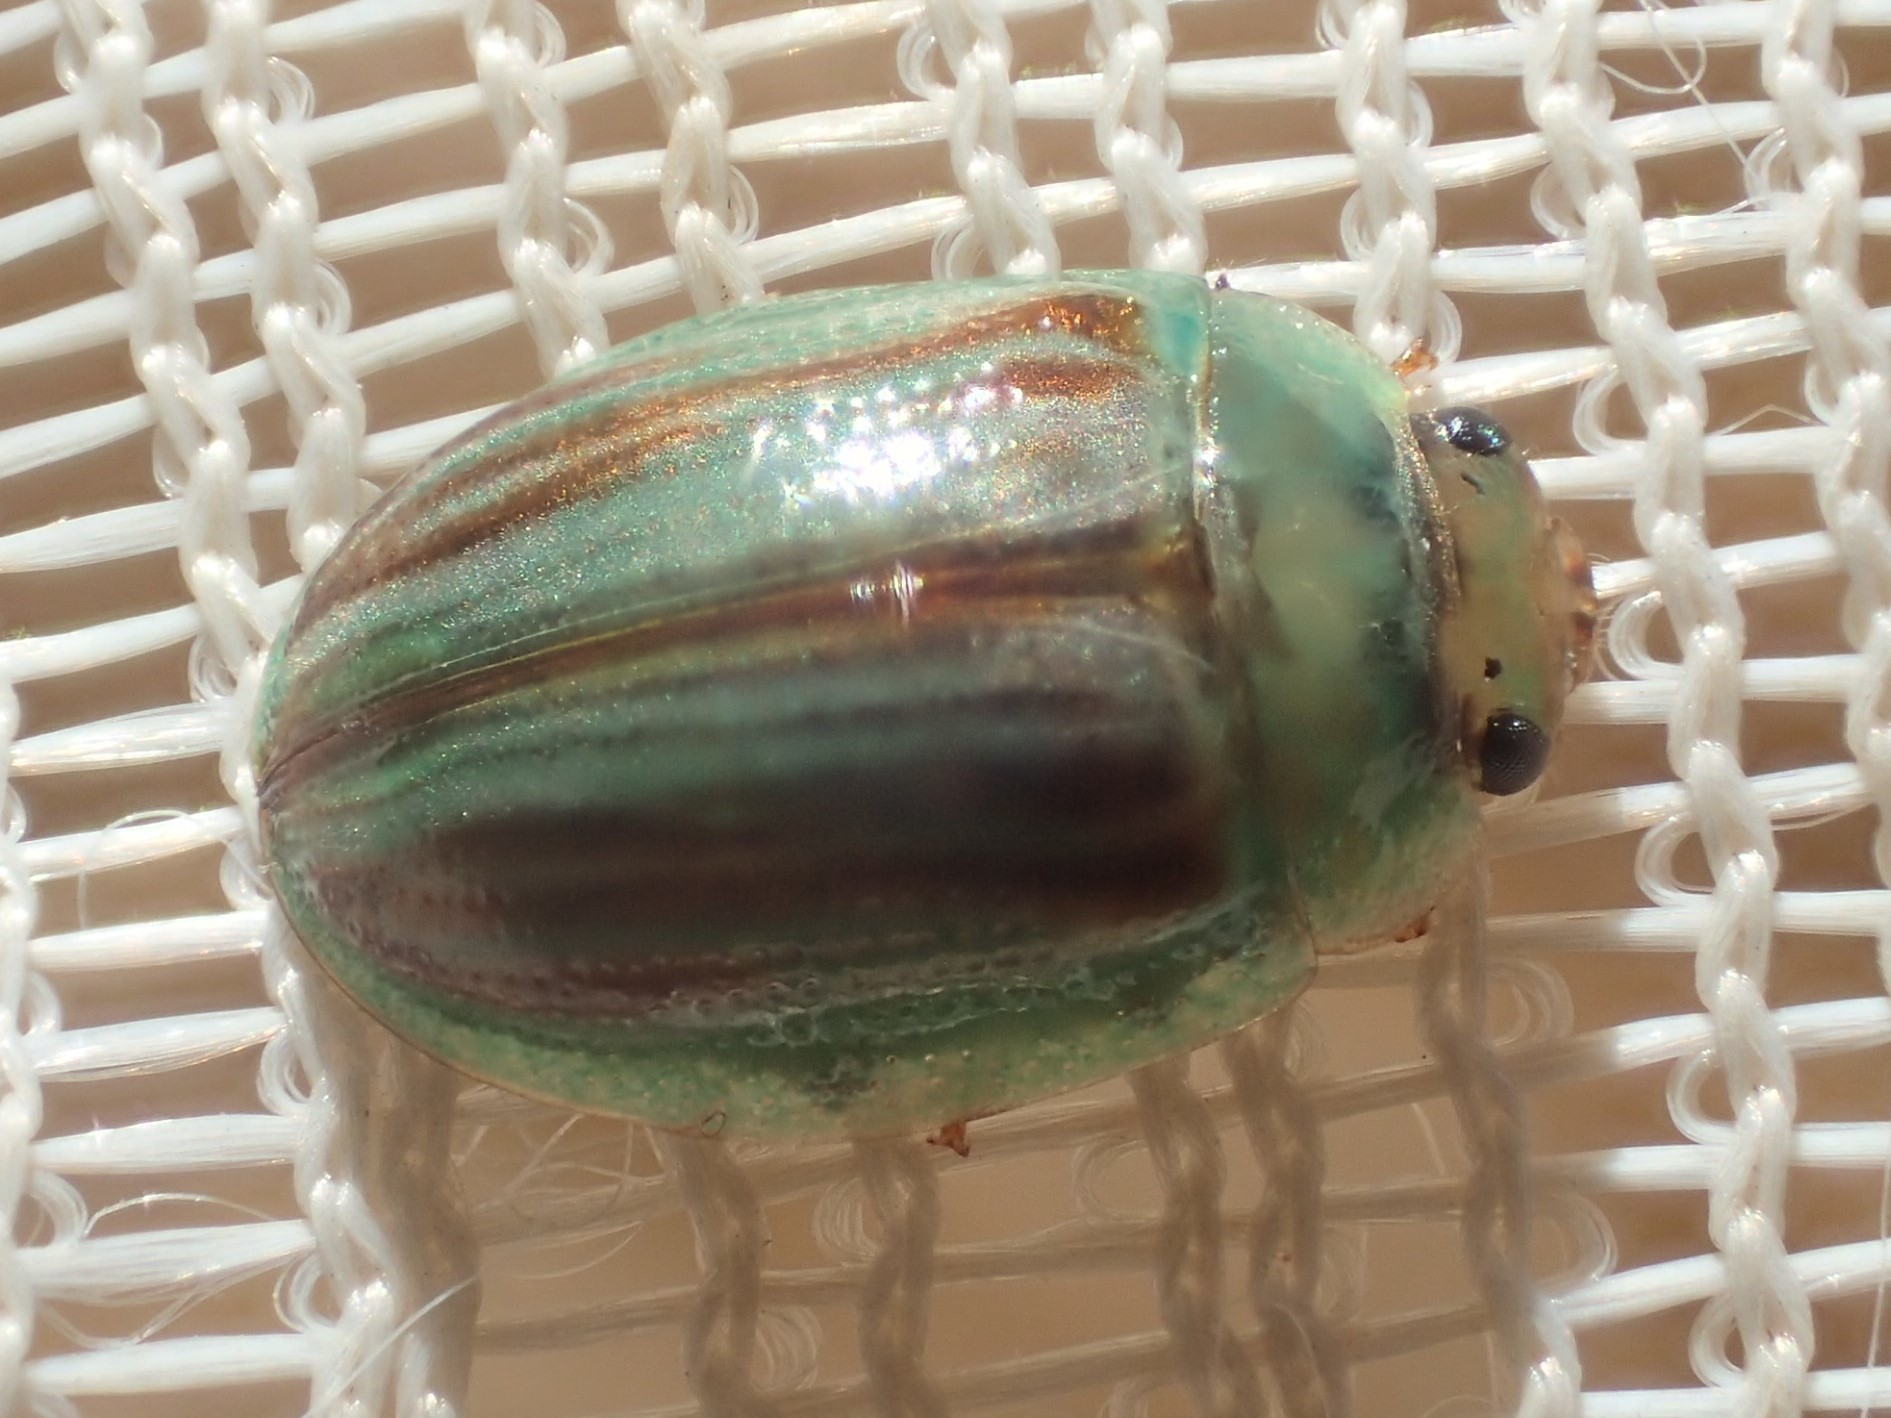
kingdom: Animalia
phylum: Arthropoda
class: Insecta
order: Coleoptera
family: Chrysomelidae
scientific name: Chrysomelidae
